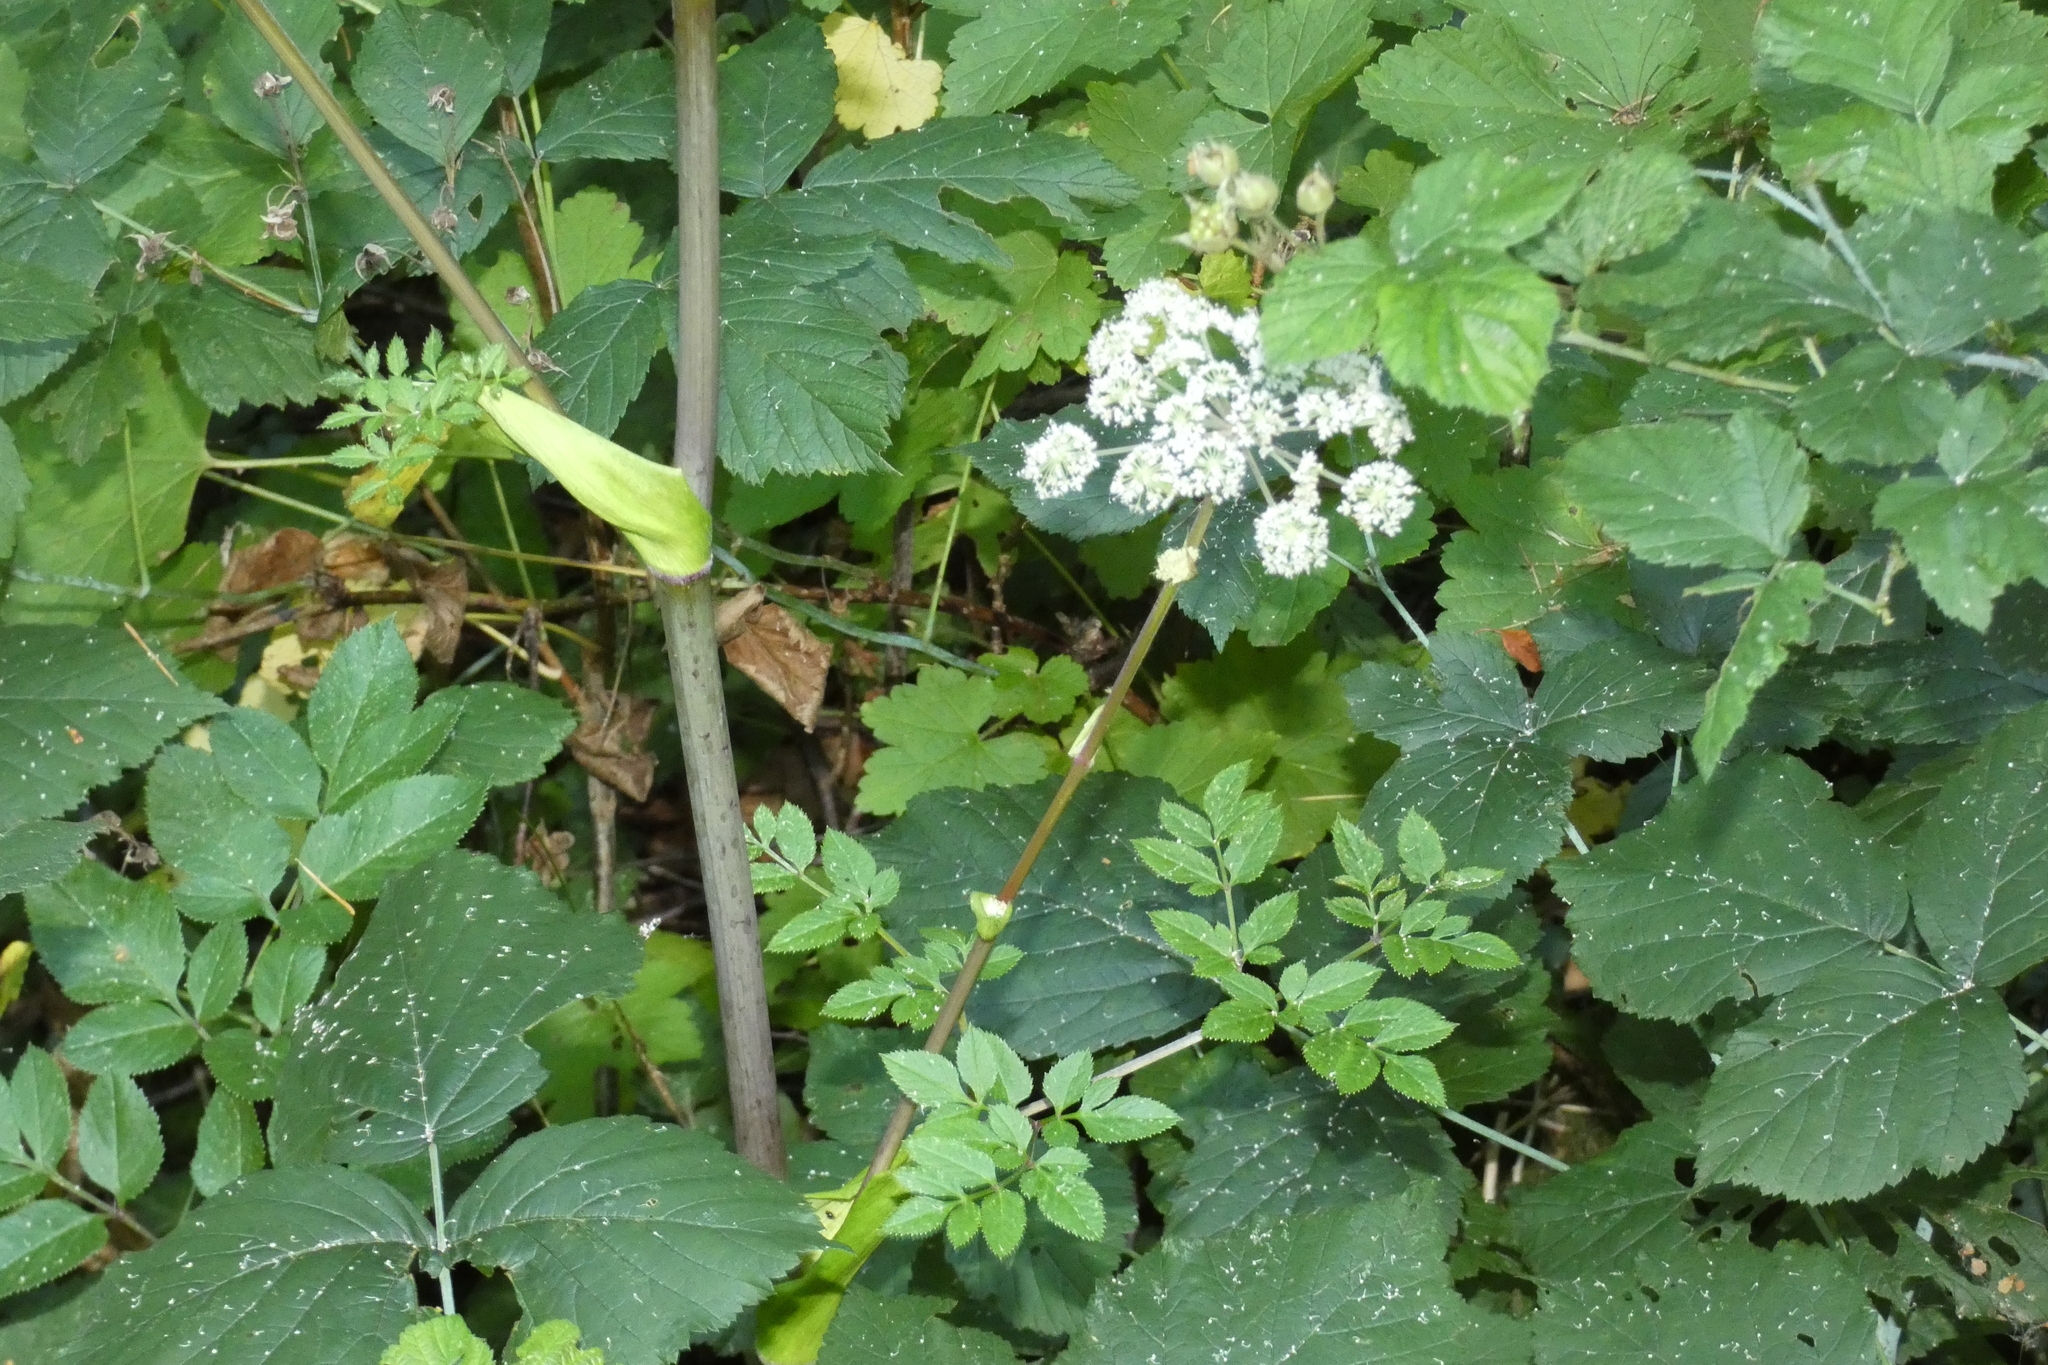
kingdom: Plantae
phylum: Tracheophyta
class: Magnoliopsida
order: Apiales
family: Apiaceae
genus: Angelica
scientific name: Angelica sylvestris
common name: Wild angelica
